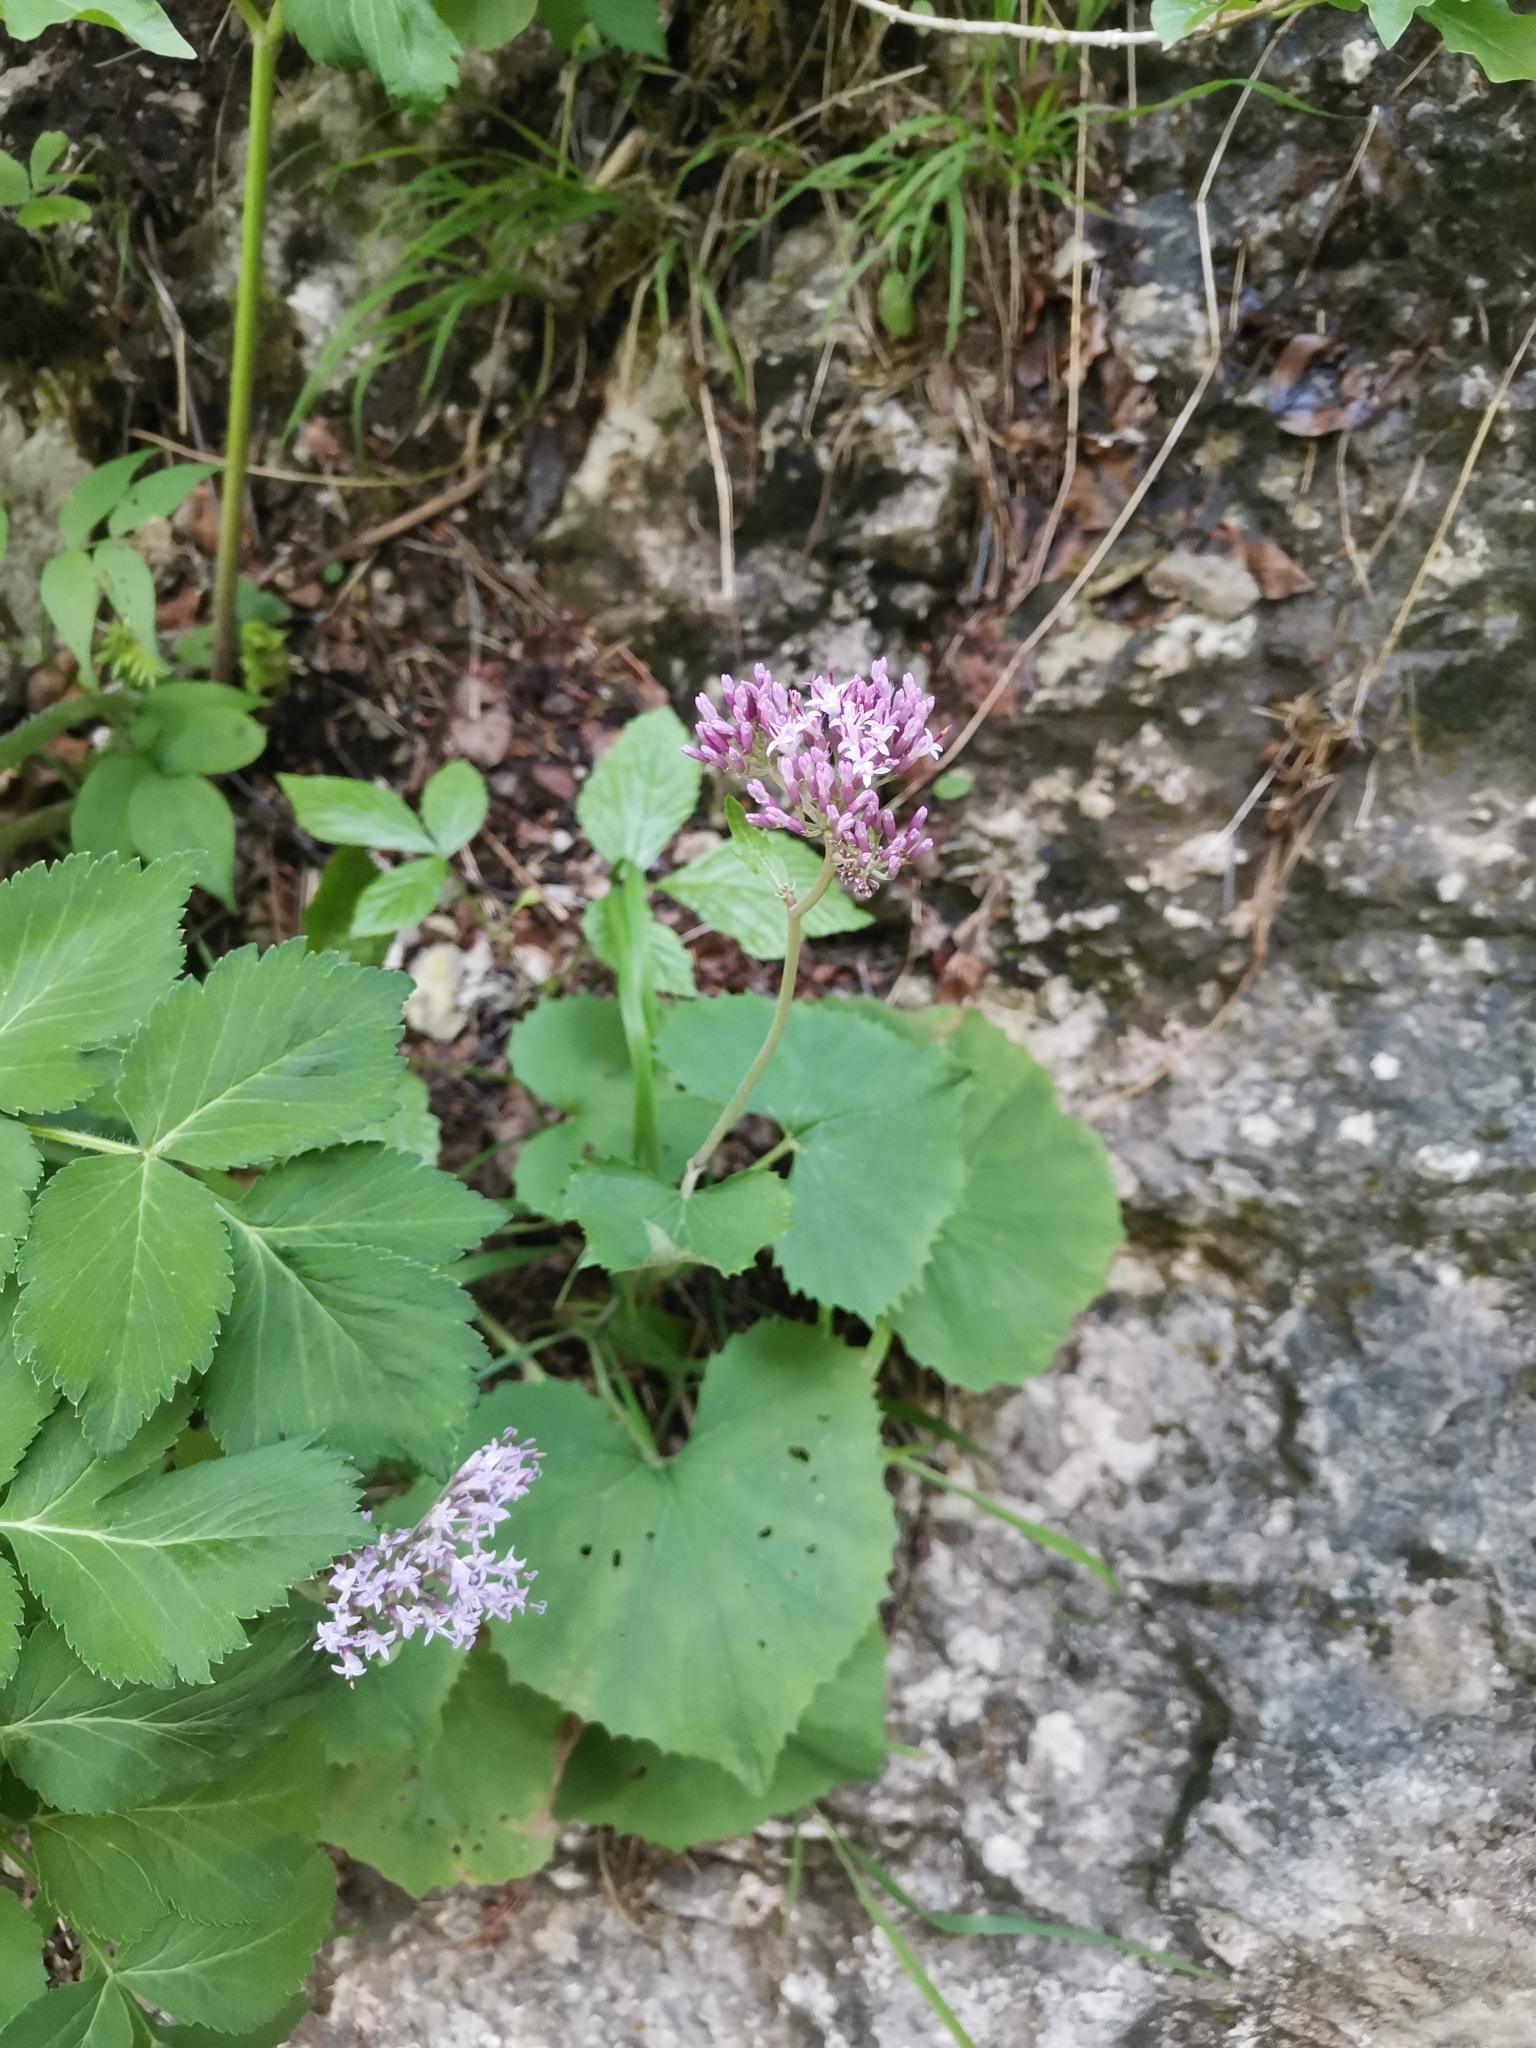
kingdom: Plantae
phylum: Tracheophyta
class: Magnoliopsida
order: Asterales
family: Asteraceae
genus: Adenostyles
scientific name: Adenostyles alpina
